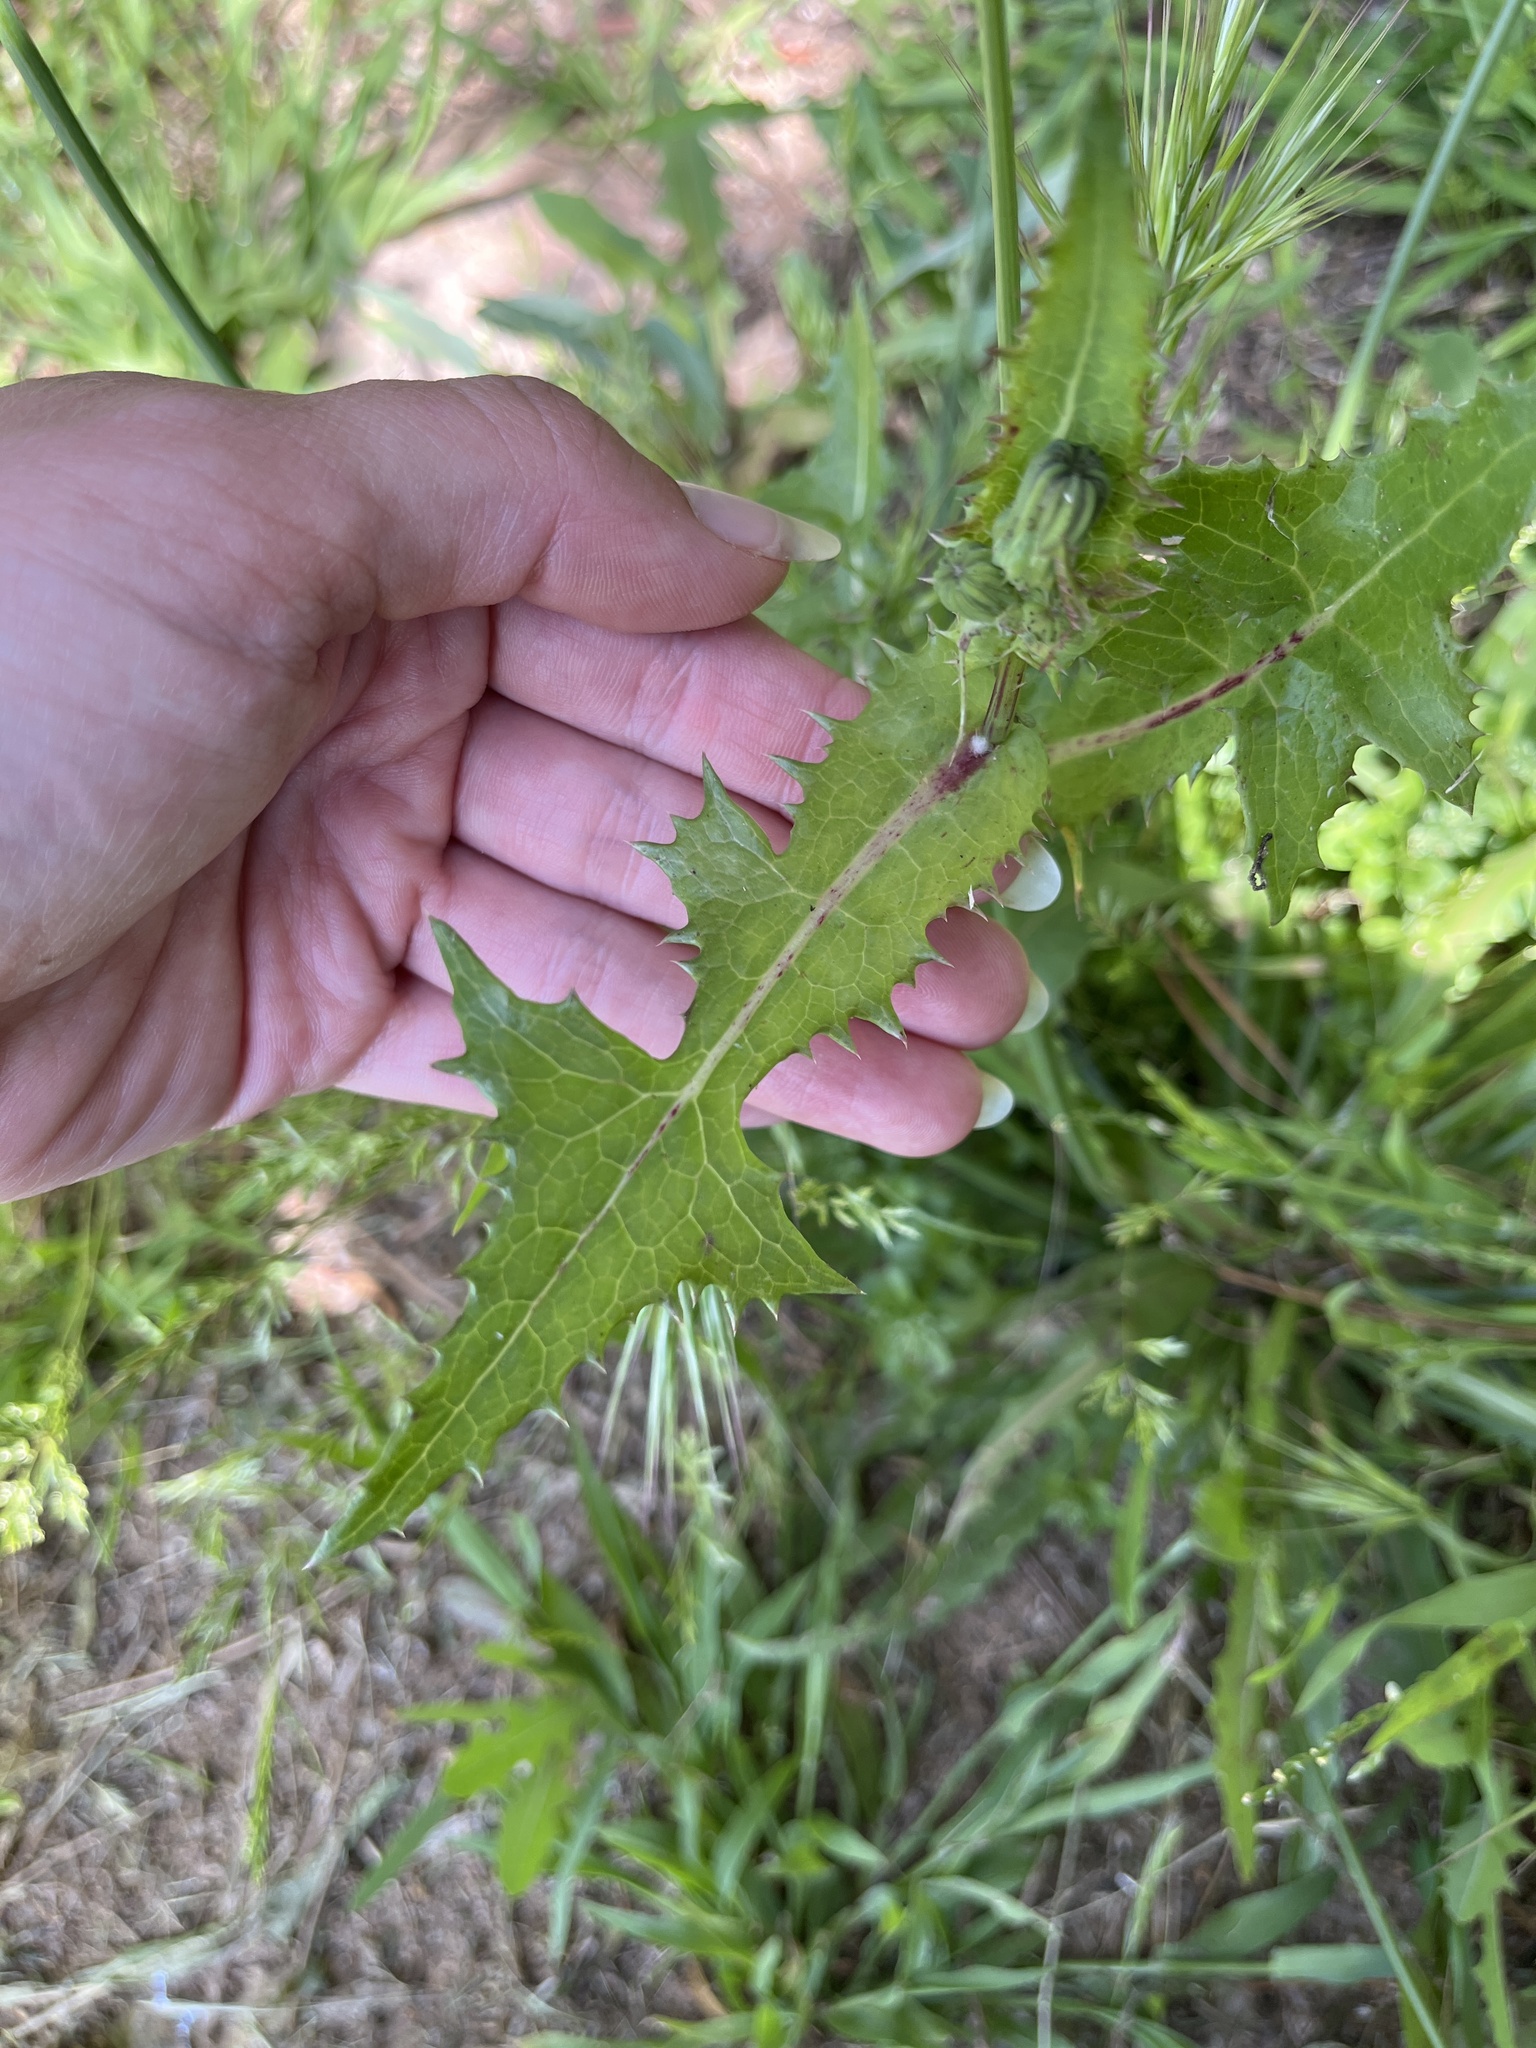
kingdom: Plantae
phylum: Tracheophyta
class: Magnoliopsida
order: Asterales
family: Asteraceae
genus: Sonchus
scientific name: Sonchus oleraceus
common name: Common sowthistle
